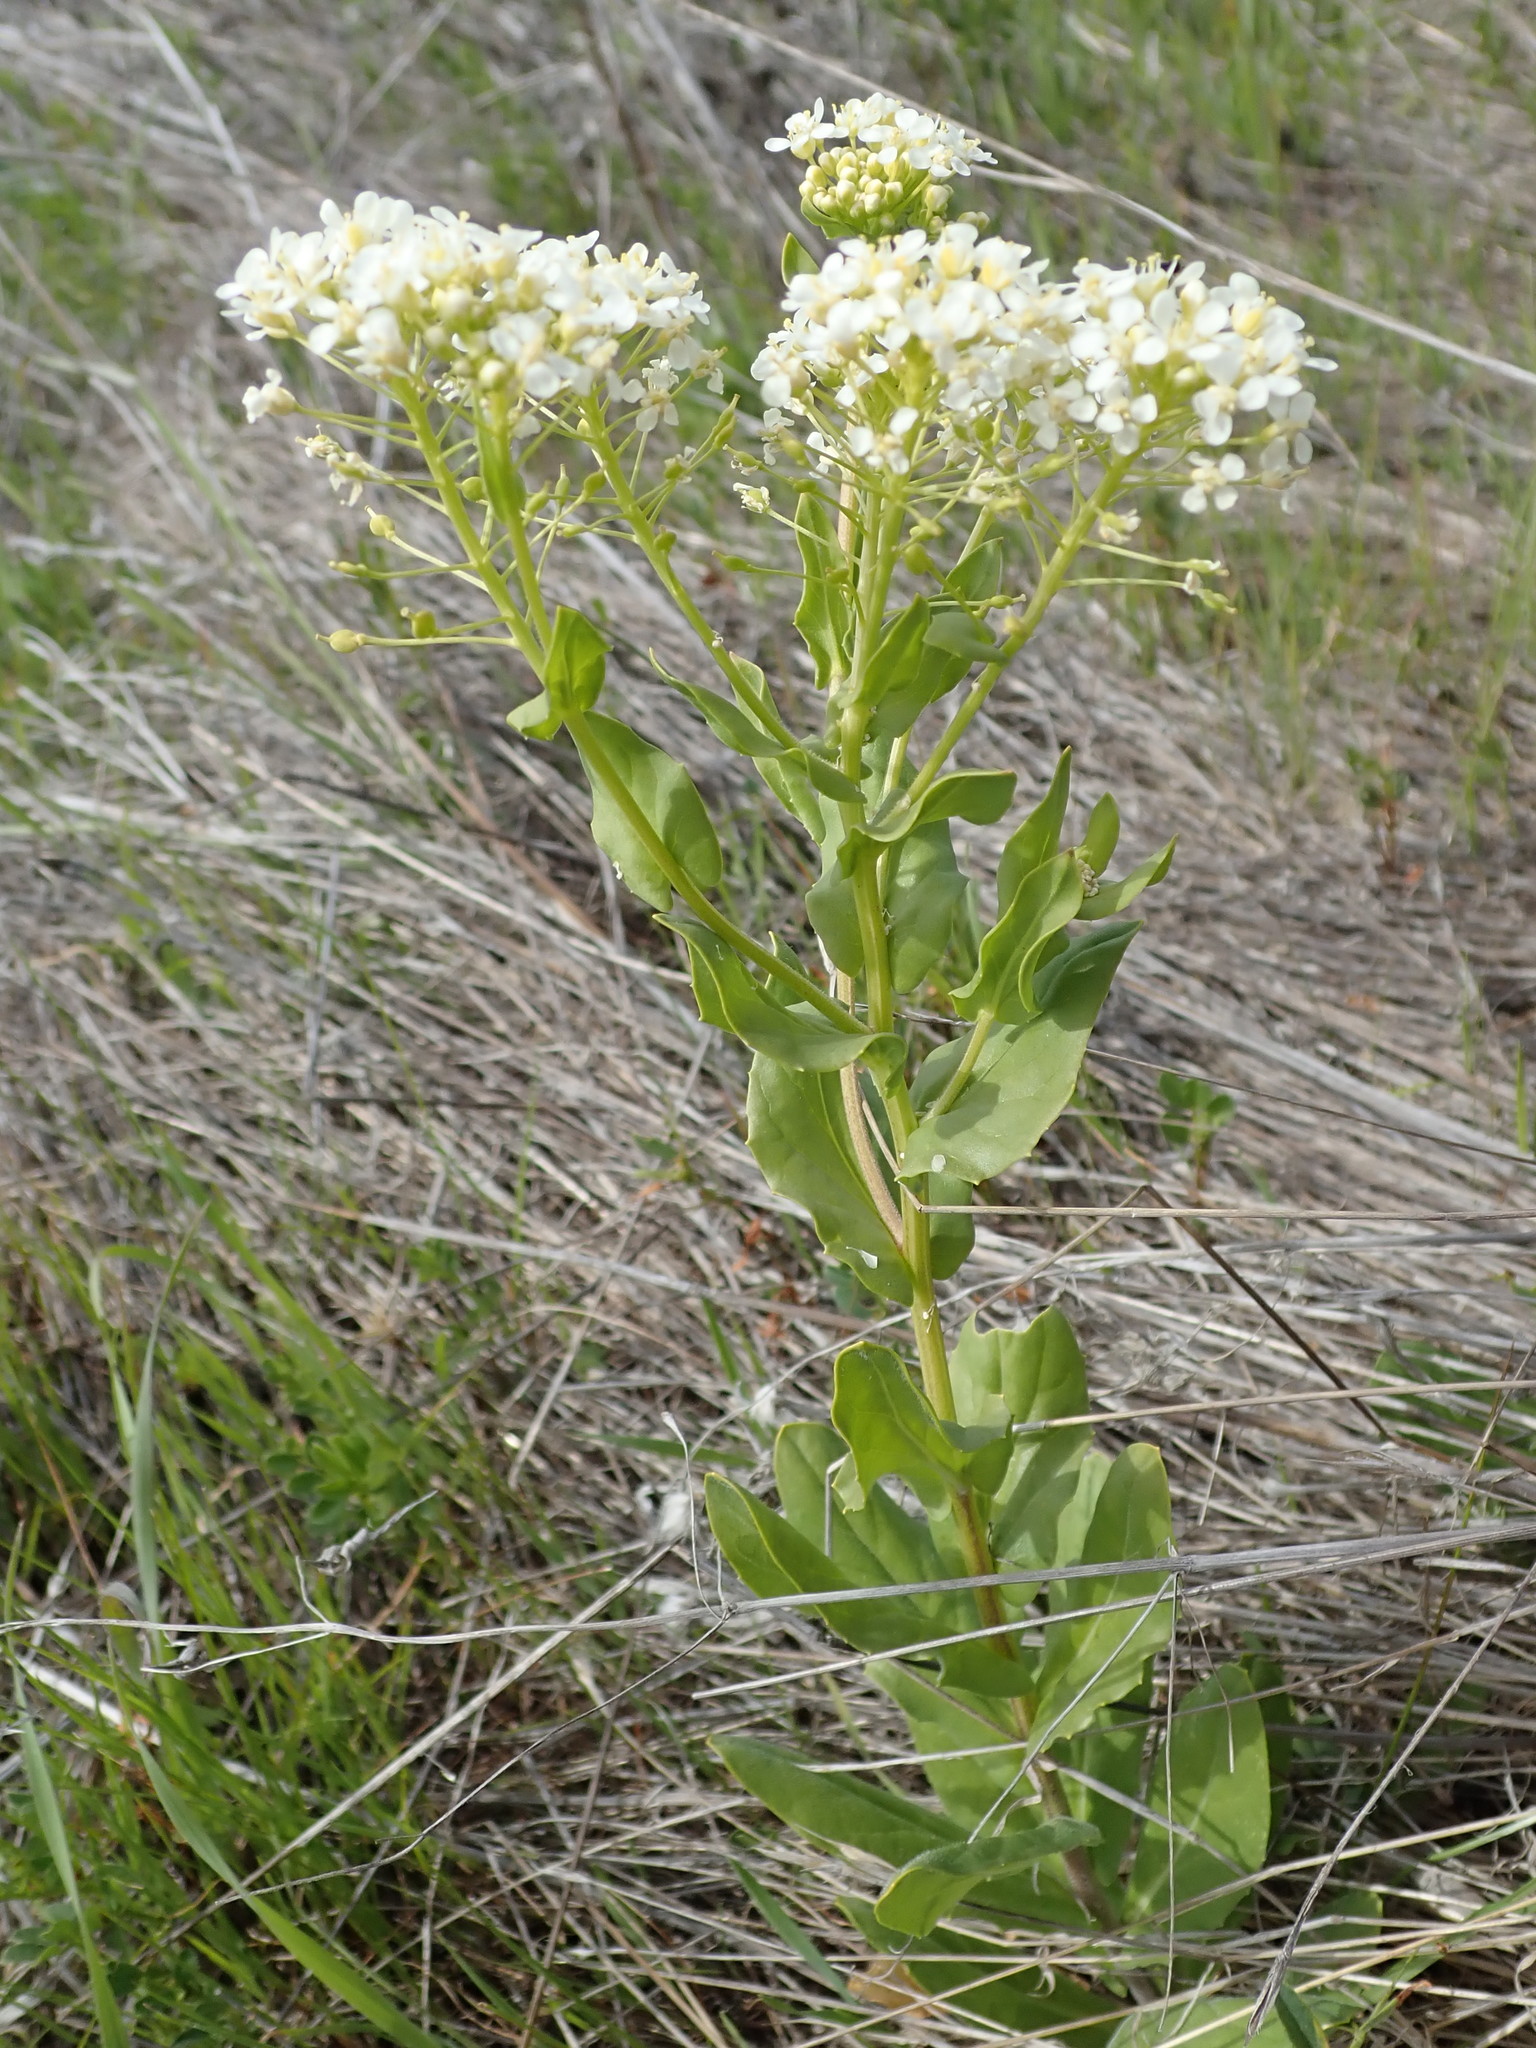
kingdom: Plantae
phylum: Tracheophyta
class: Magnoliopsida
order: Brassicales
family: Brassicaceae
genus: Lepidium
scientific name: Lepidium
